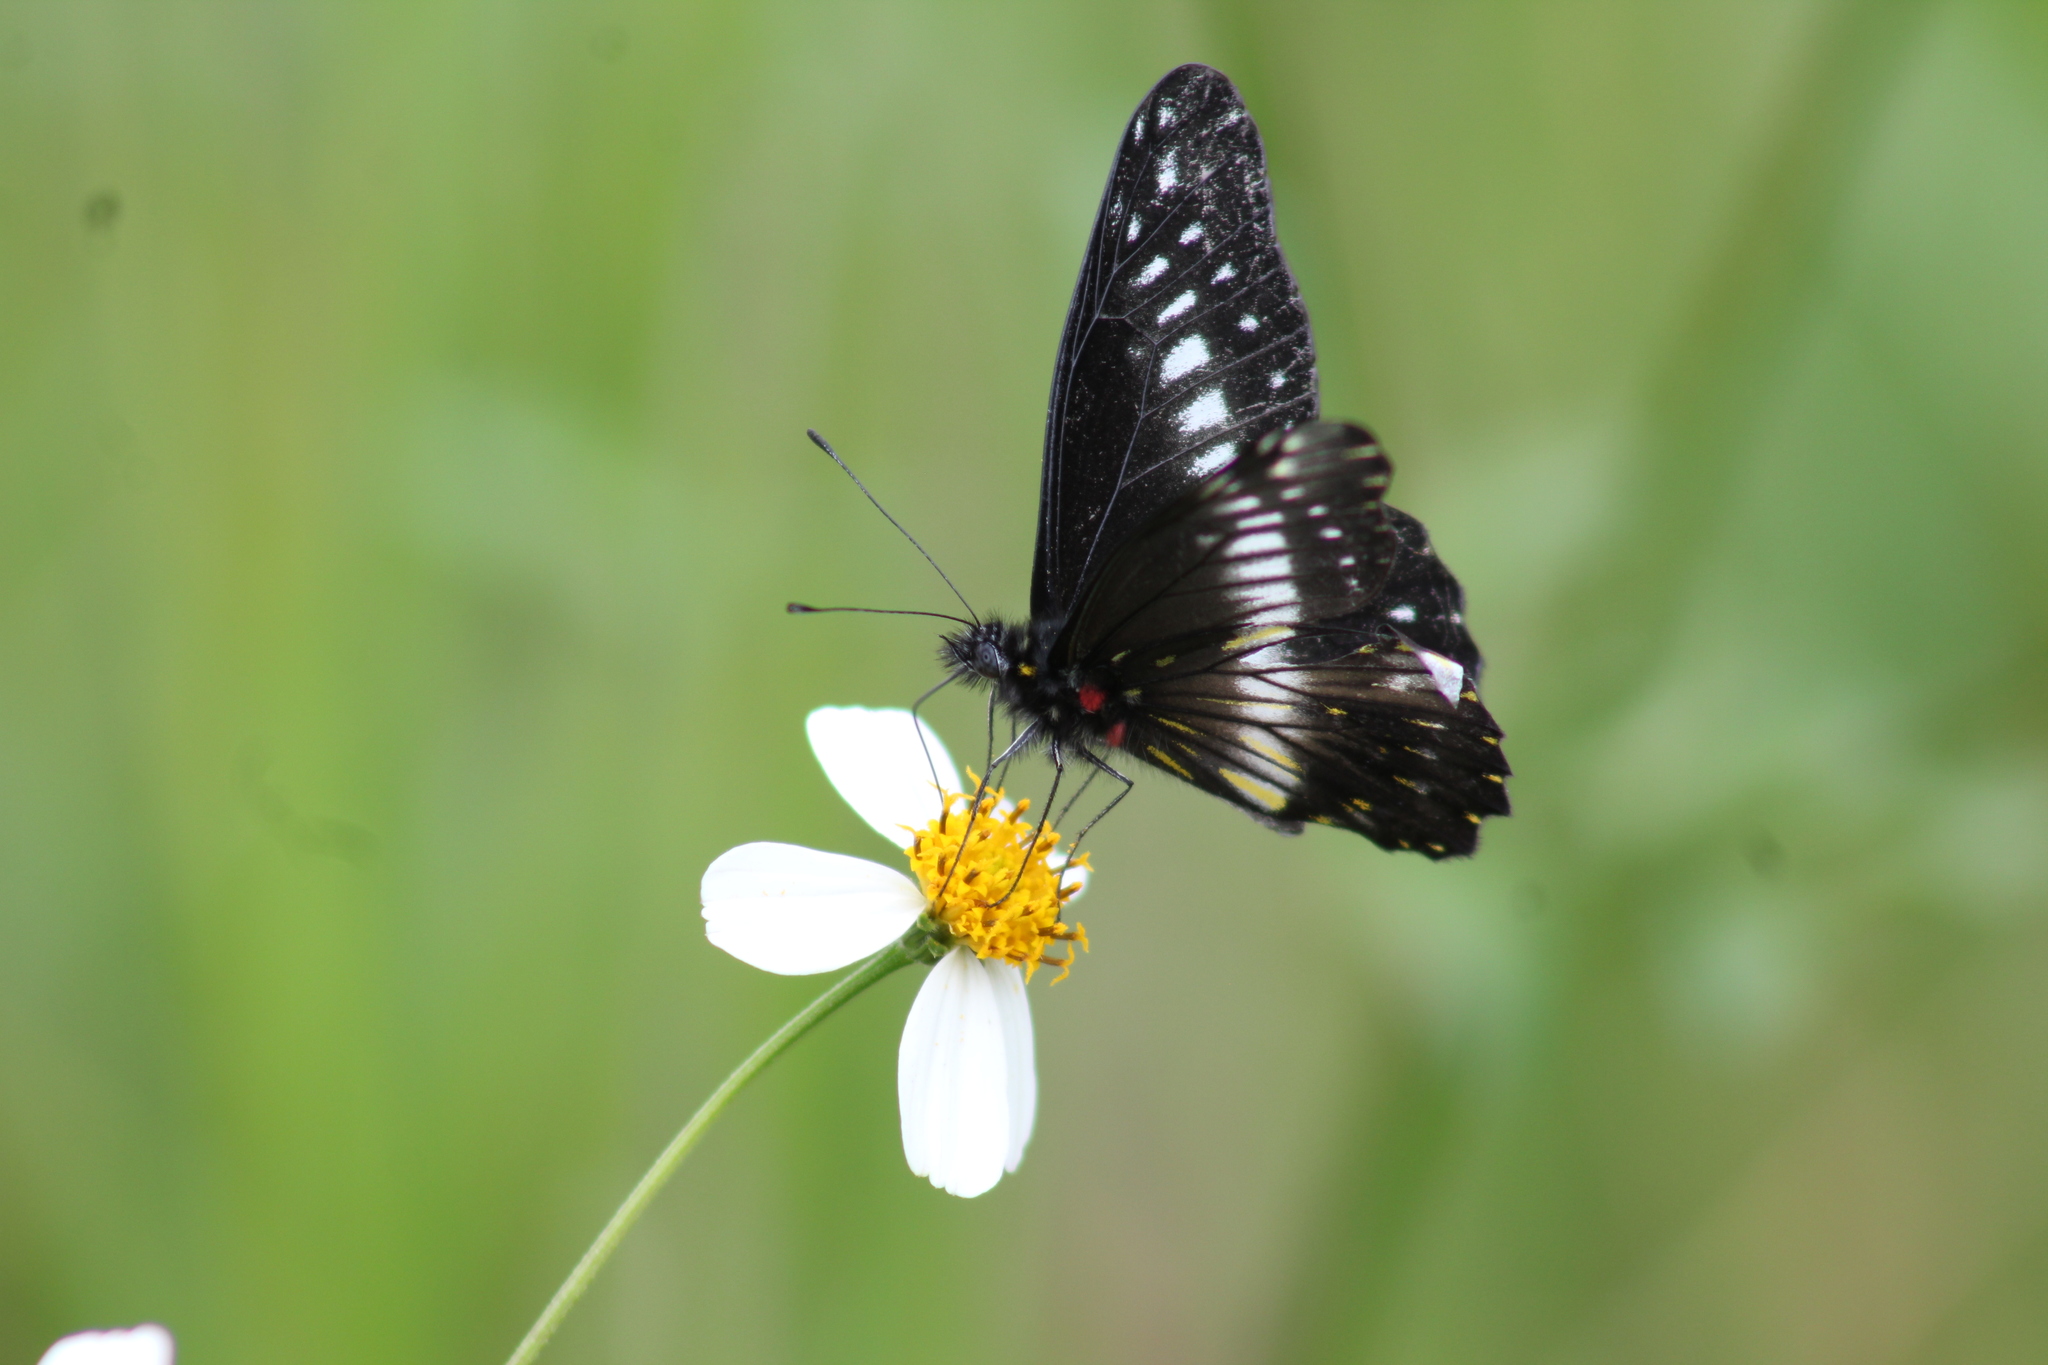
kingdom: Animalia
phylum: Arthropoda
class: Insecta
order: Lepidoptera
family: Pieridae
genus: Archonias
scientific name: Archonias flisa
